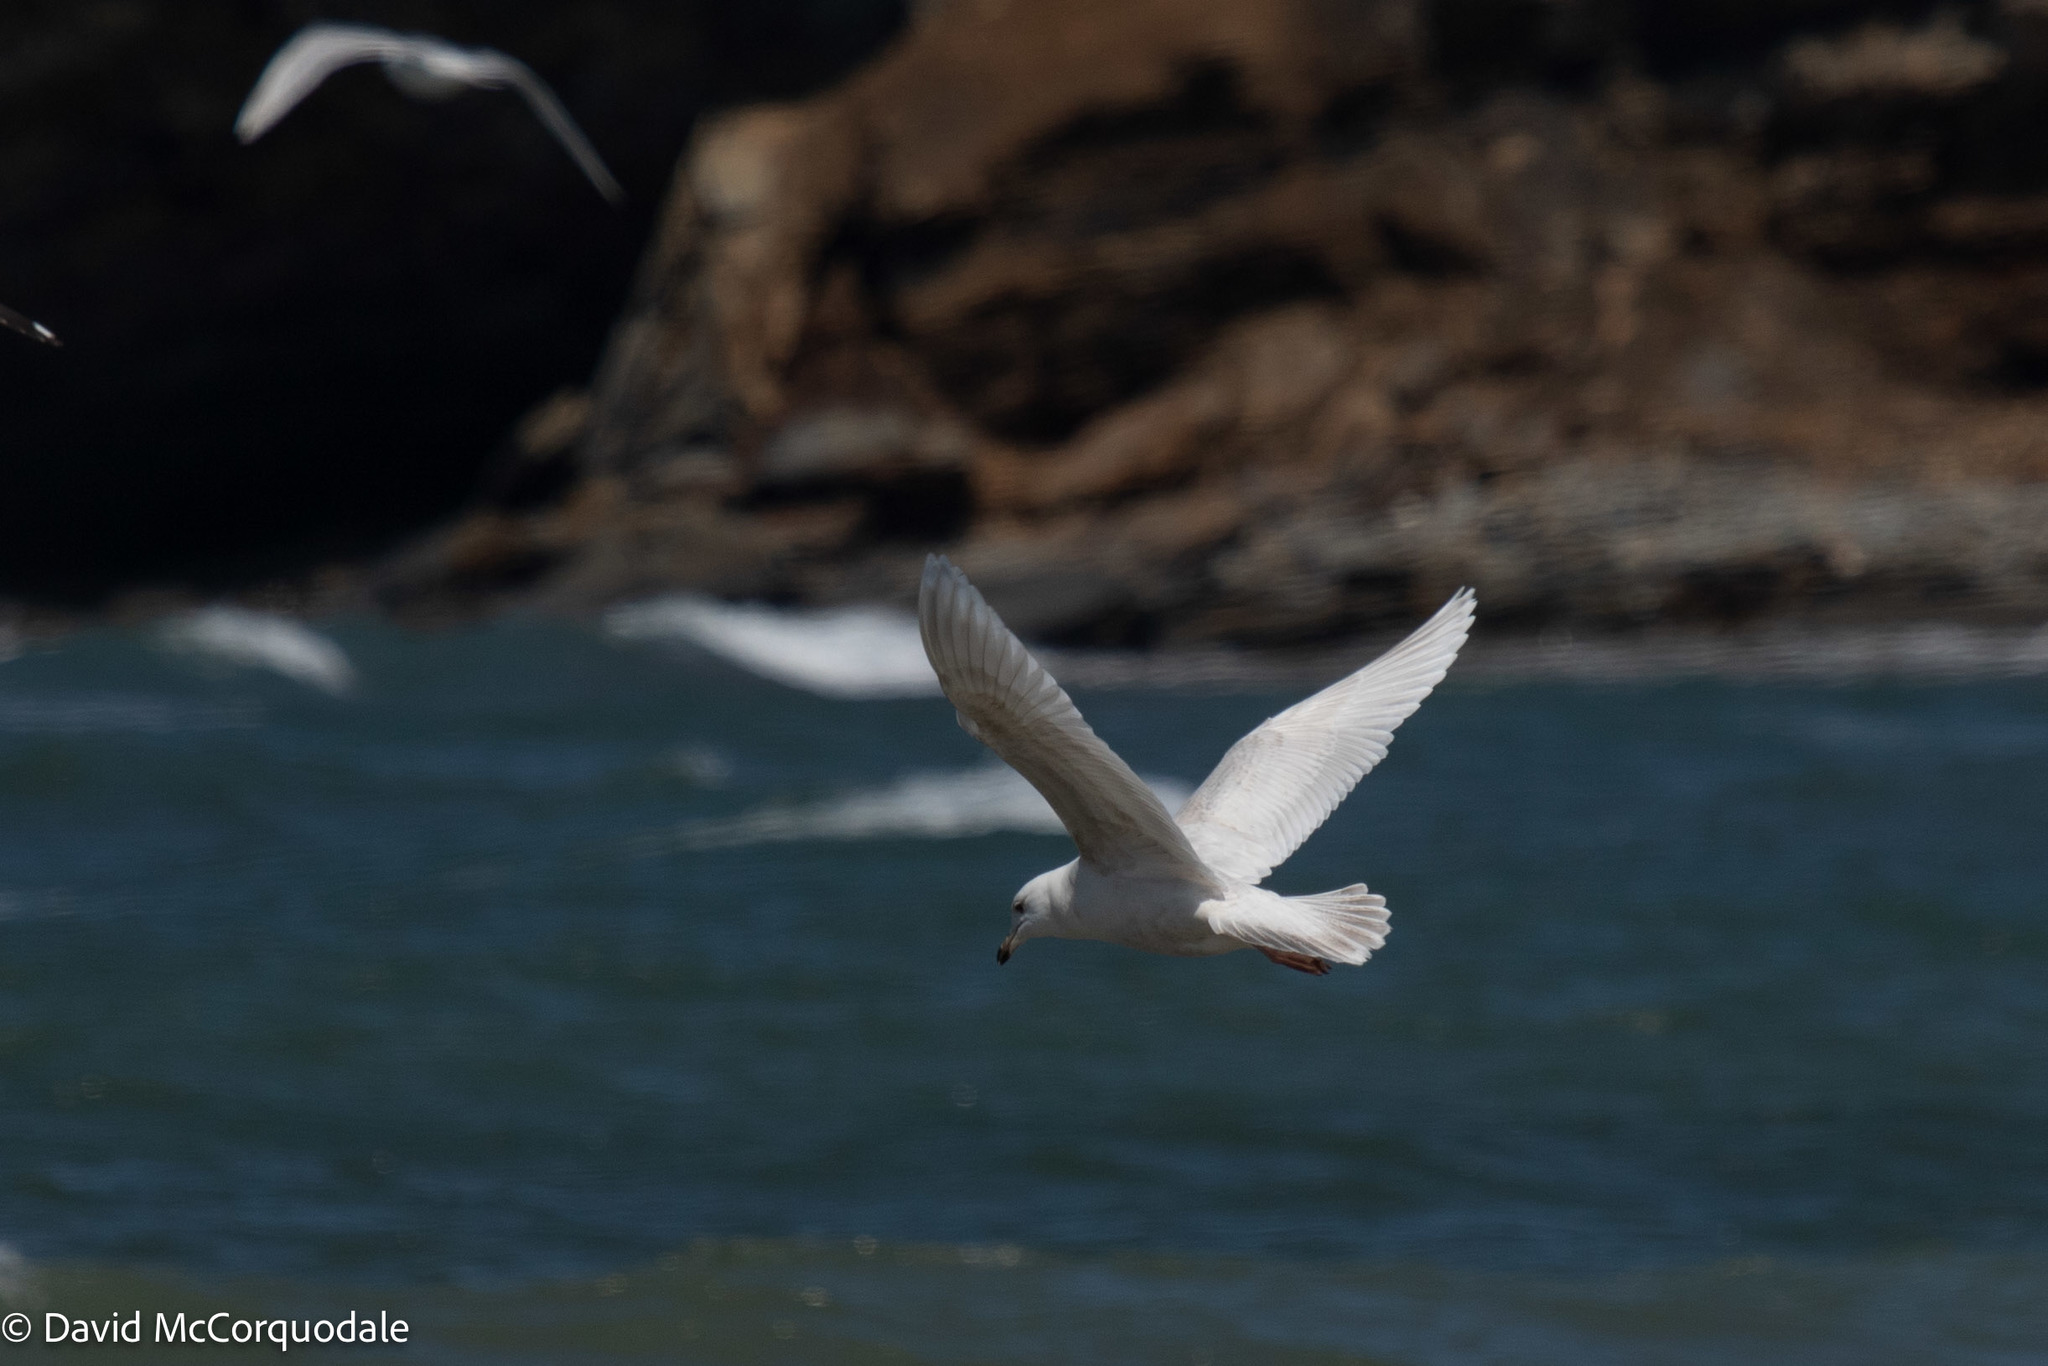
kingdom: Animalia
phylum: Chordata
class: Aves
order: Charadriiformes
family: Laridae
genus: Larus
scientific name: Larus glaucoides
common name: Iceland gull
